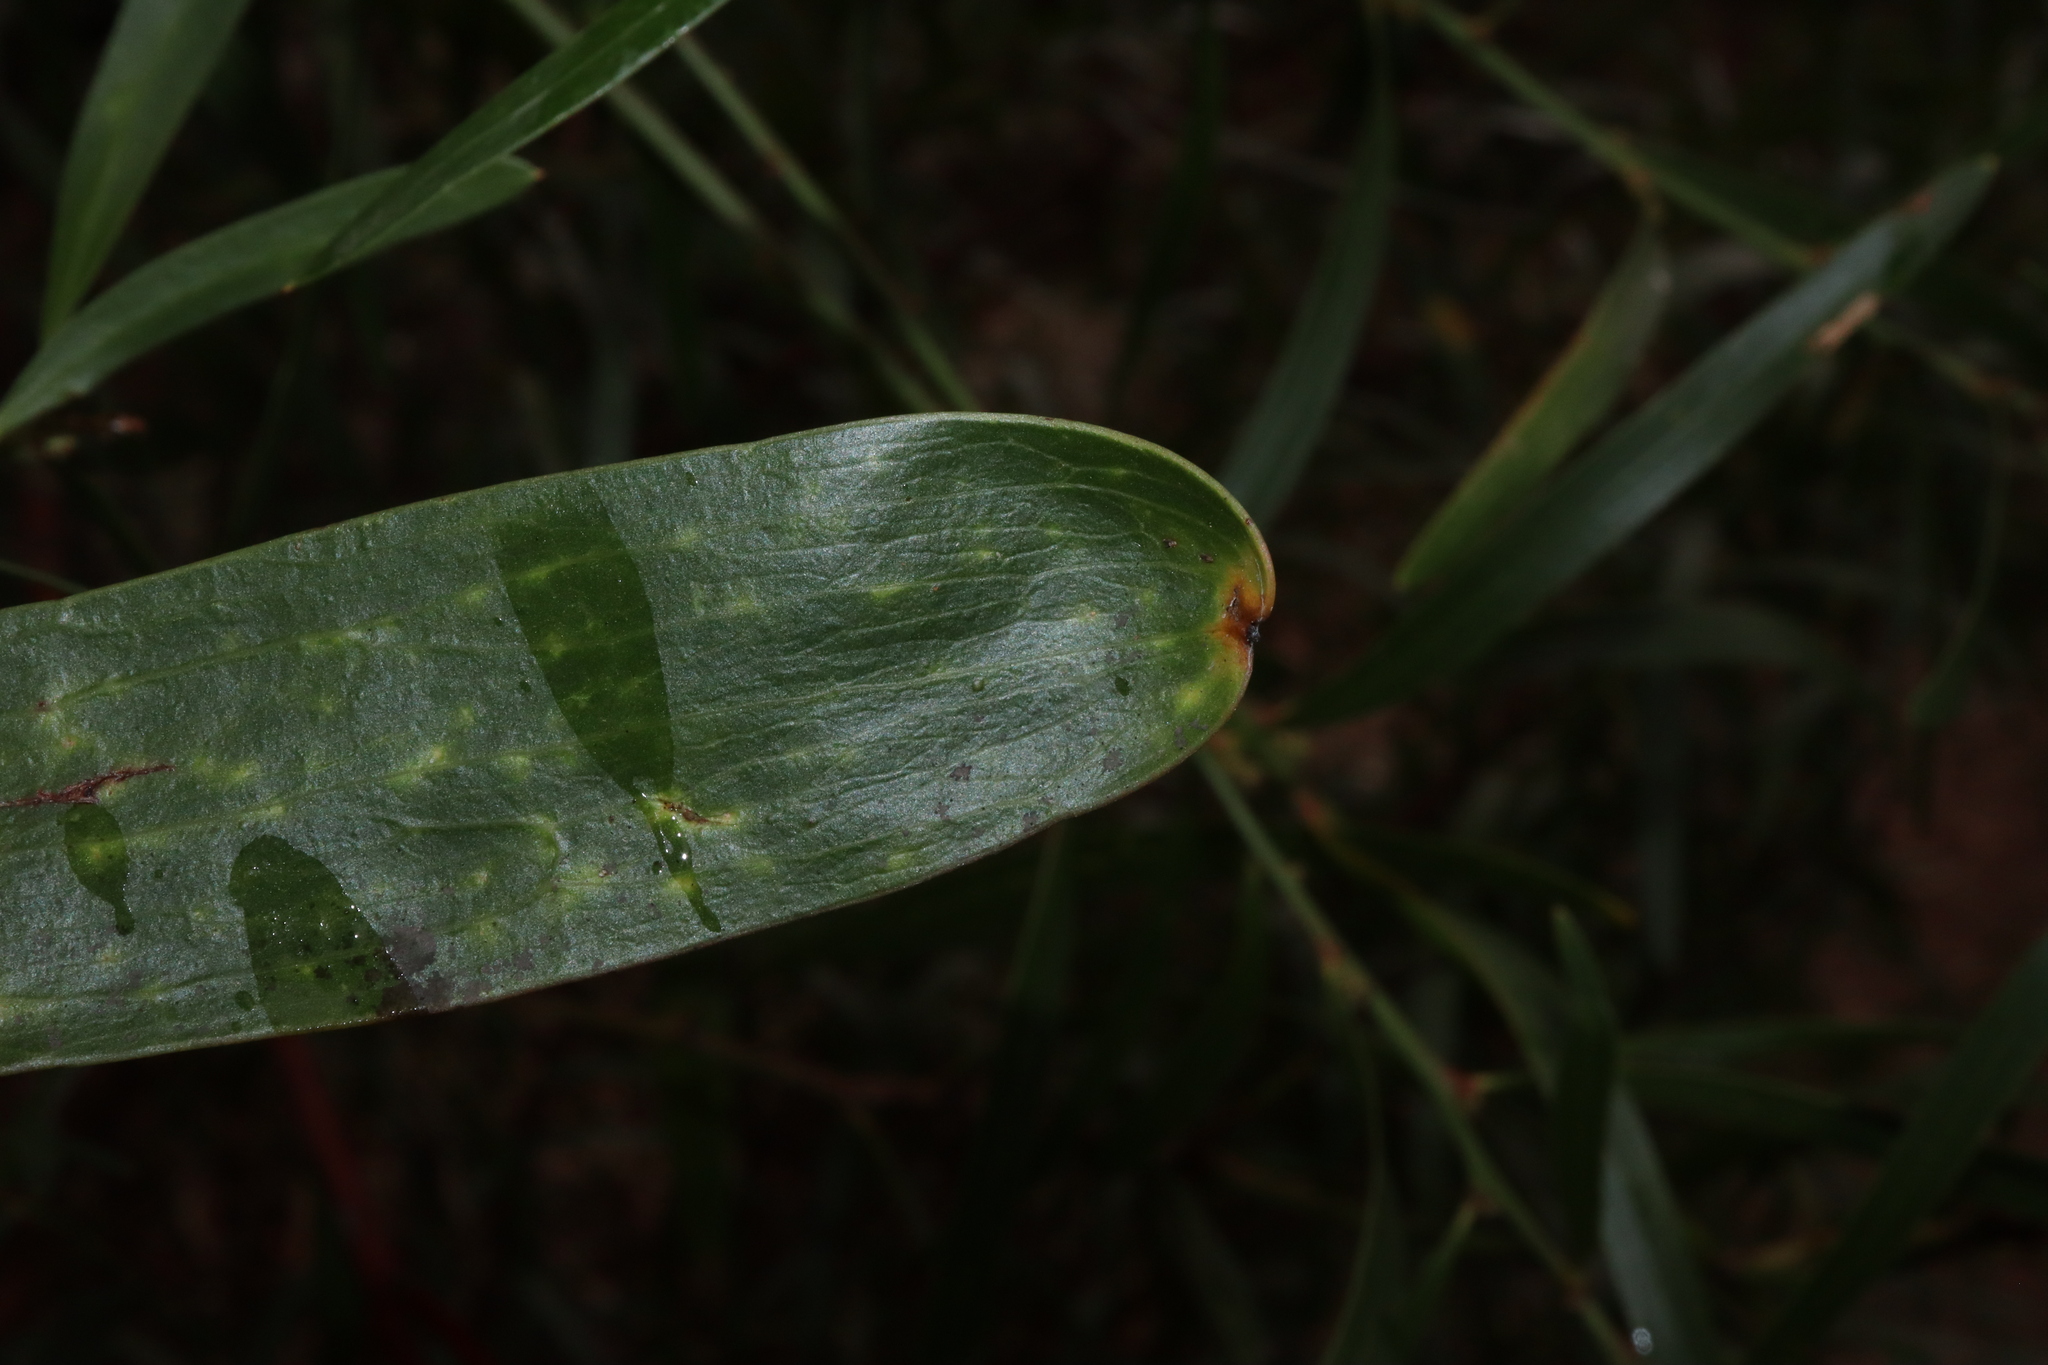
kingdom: Plantae
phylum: Tracheophyta
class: Magnoliopsida
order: Fabales
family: Fabaceae
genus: Daviesia
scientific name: Daviesia corymbosa
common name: Narrow-leaf bitter-pea
